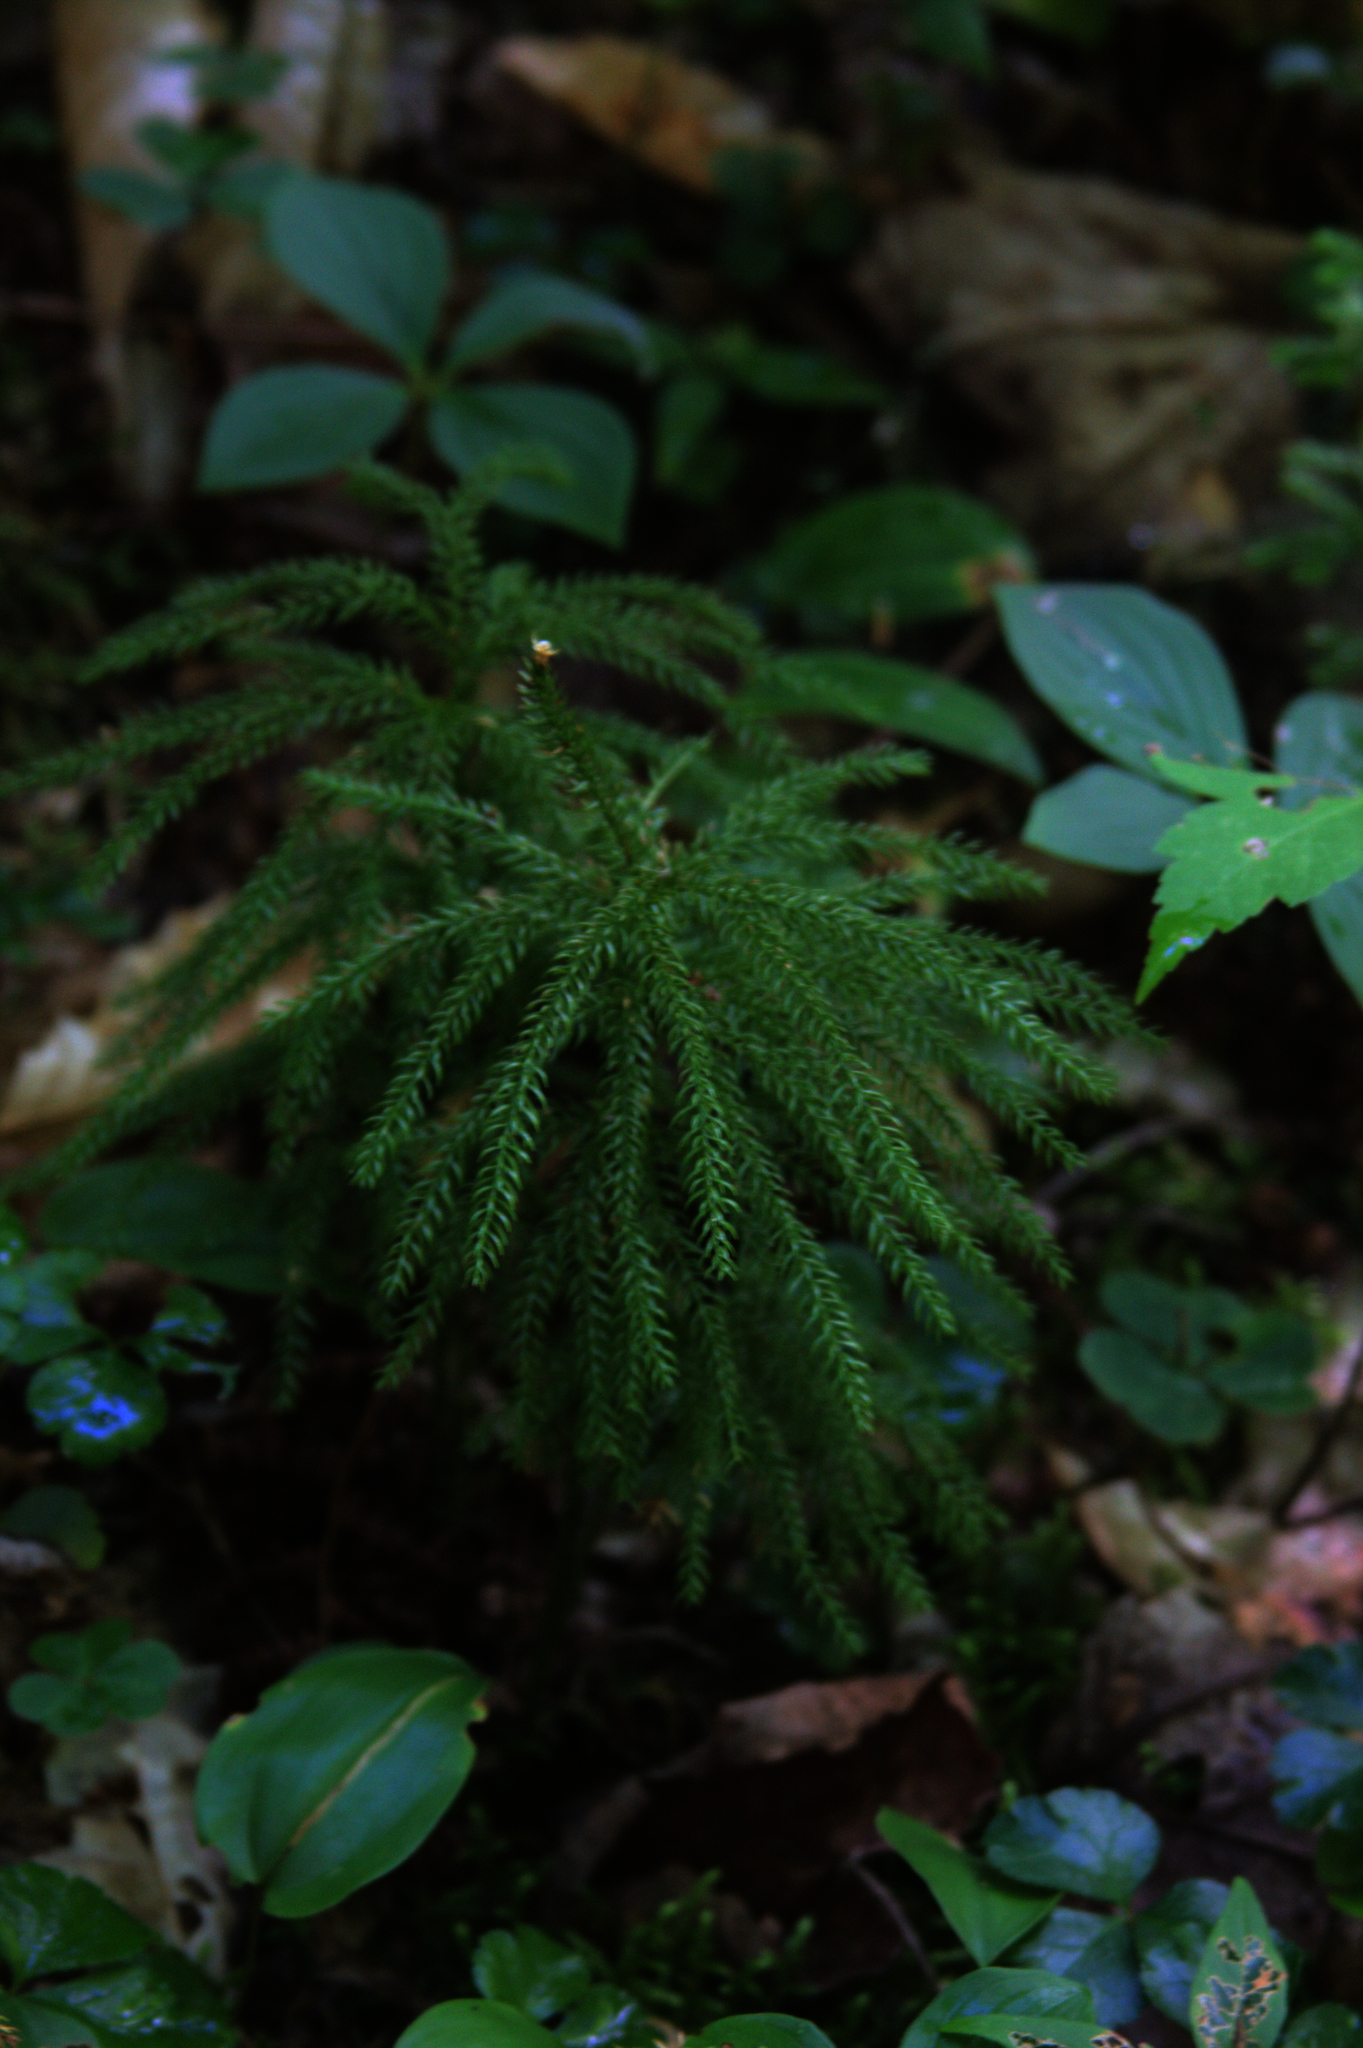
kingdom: Plantae
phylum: Tracheophyta
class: Liliopsida
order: Asparagales
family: Asparagaceae
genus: Maianthemum
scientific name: Maianthemum canadense
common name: False lily-of-the-valley
